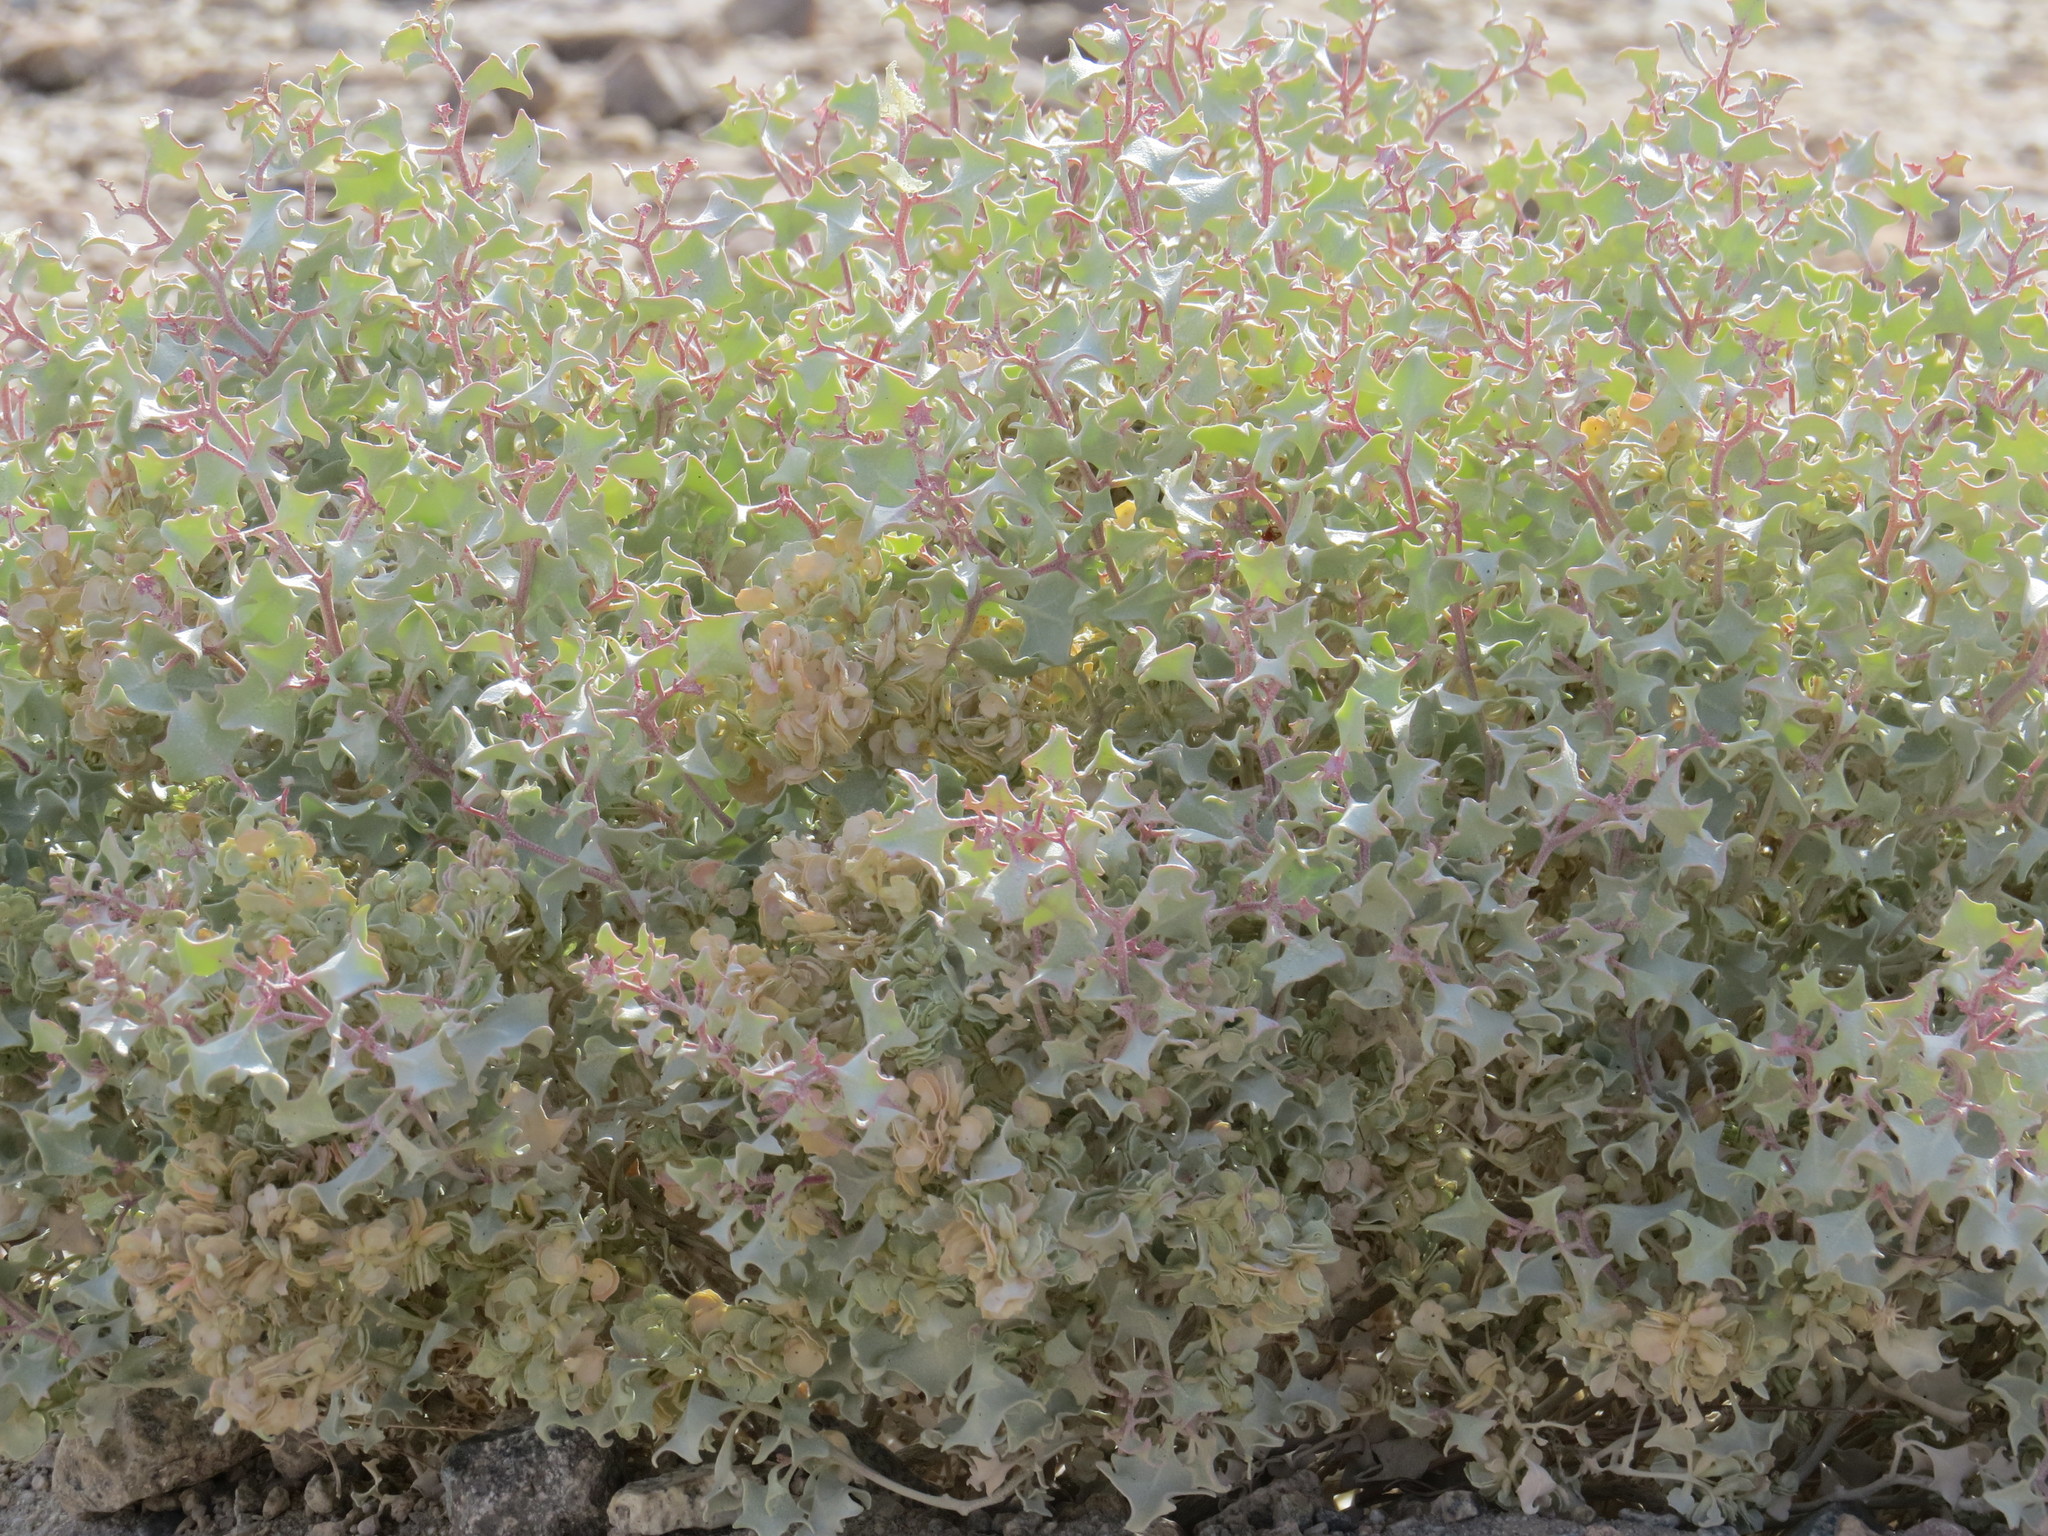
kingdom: Plantae
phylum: Tracheophyta
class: Magnoliopsida
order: Caryophyllales
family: Amaranthaceae
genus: Atriplex
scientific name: Atriplex hymenelytra
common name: Desert-holly
